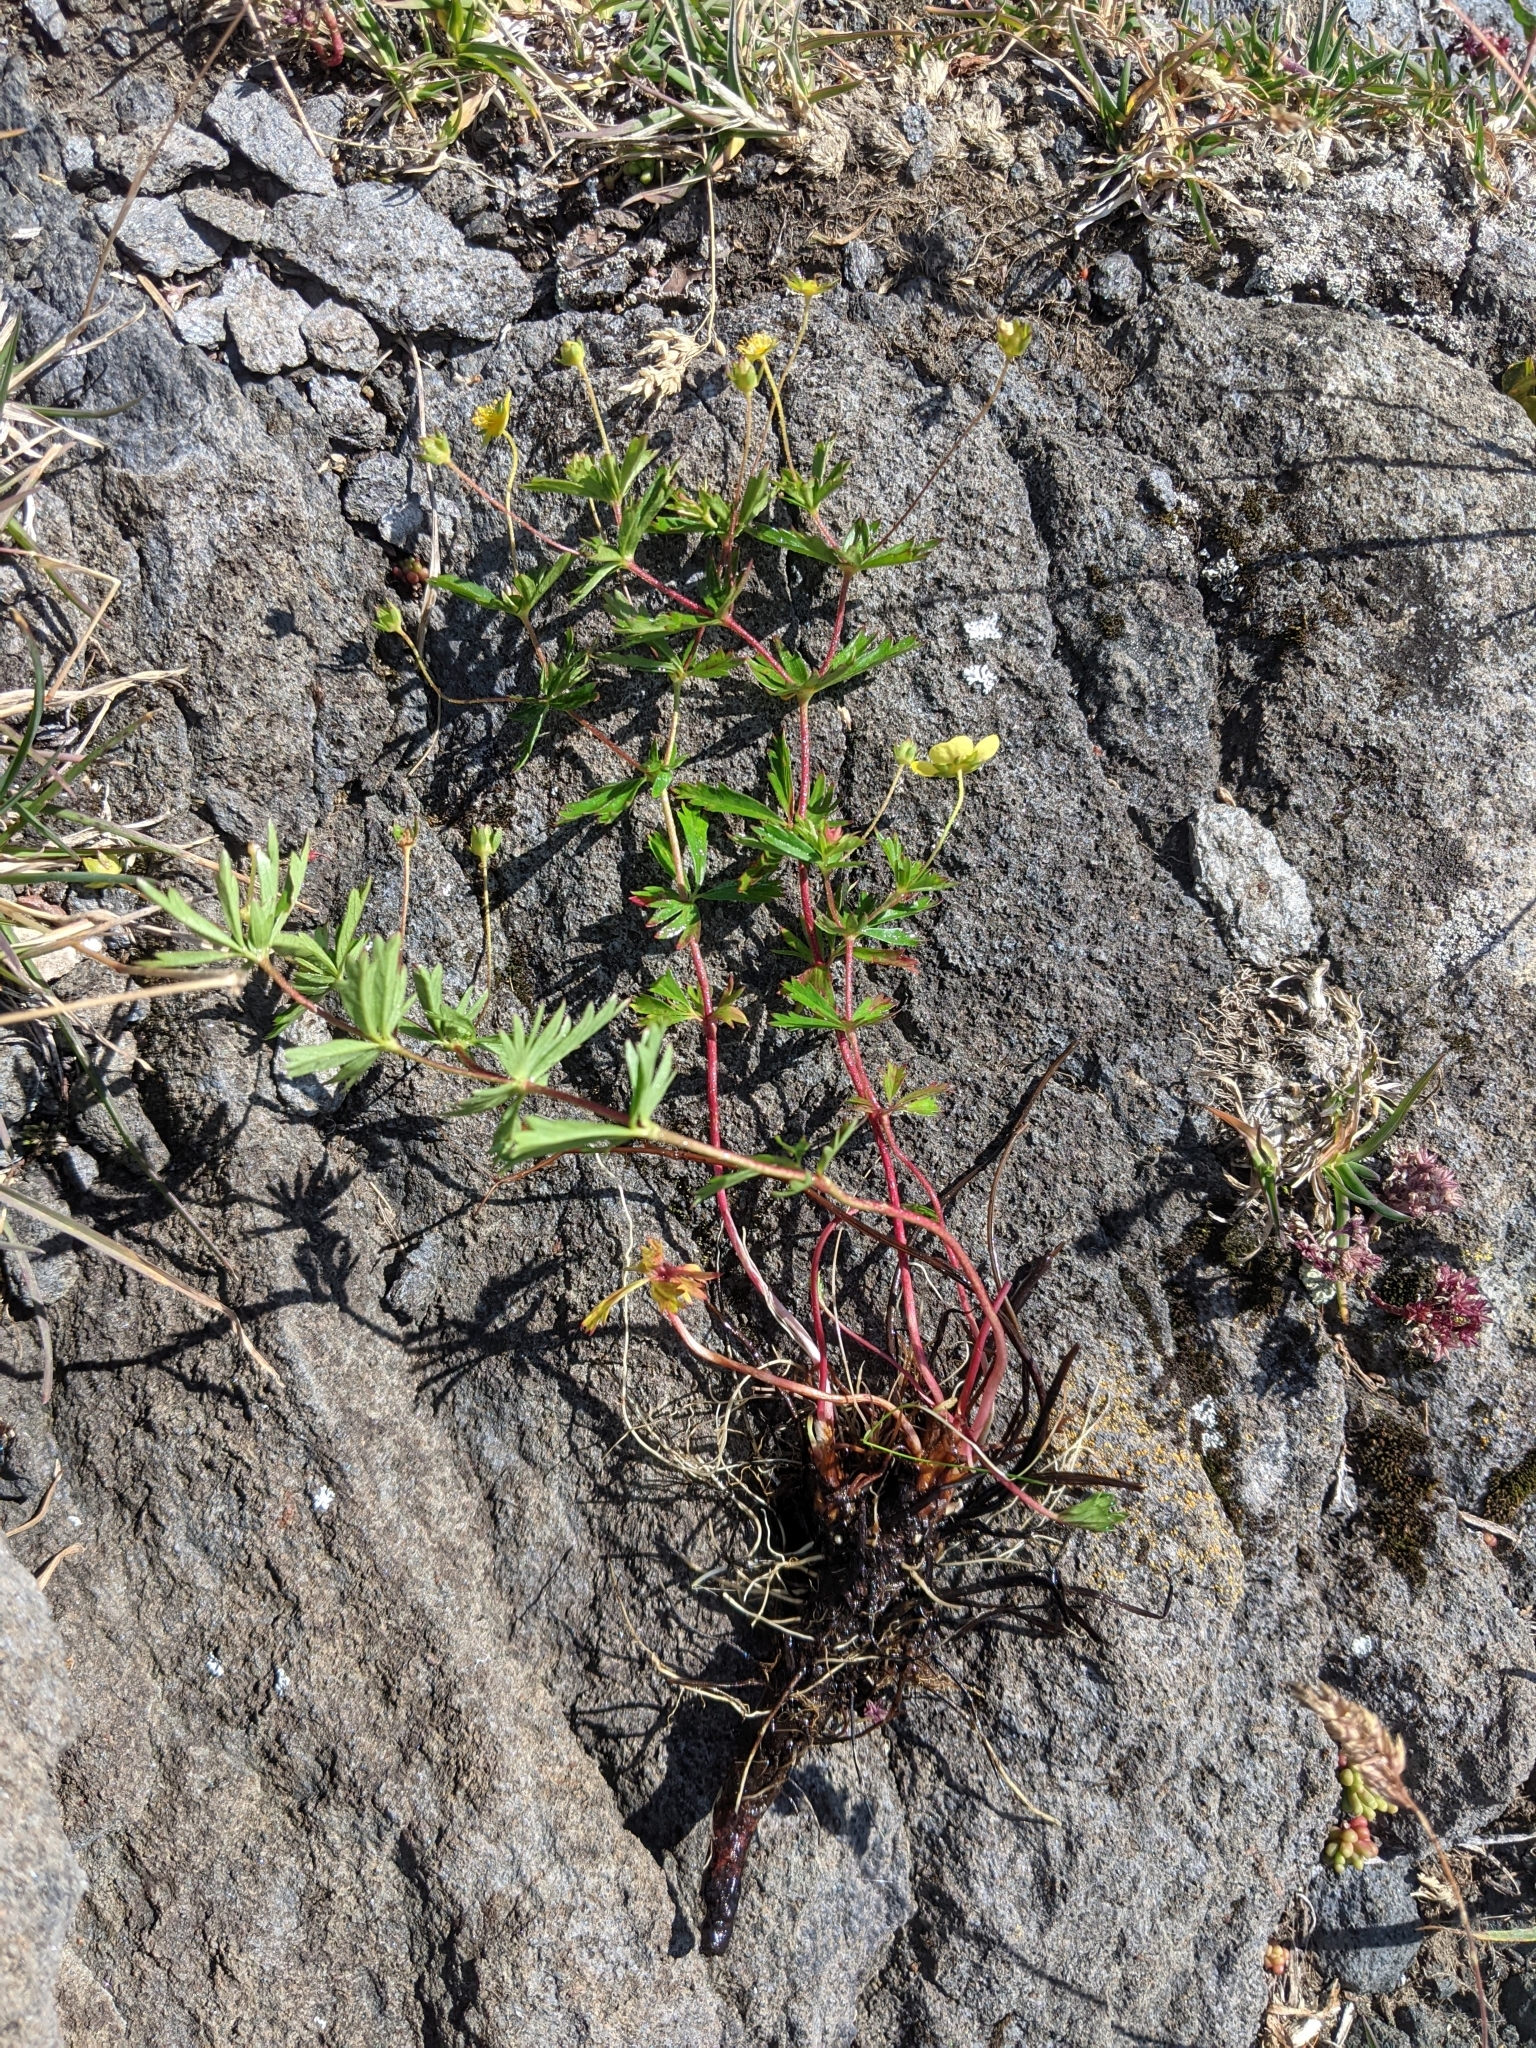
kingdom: Plantae
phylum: Tracheophyta
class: Magnoliopsida
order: Rosales
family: Rosaceae
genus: Potentilla
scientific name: Potentilla erecta
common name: Tormentil
